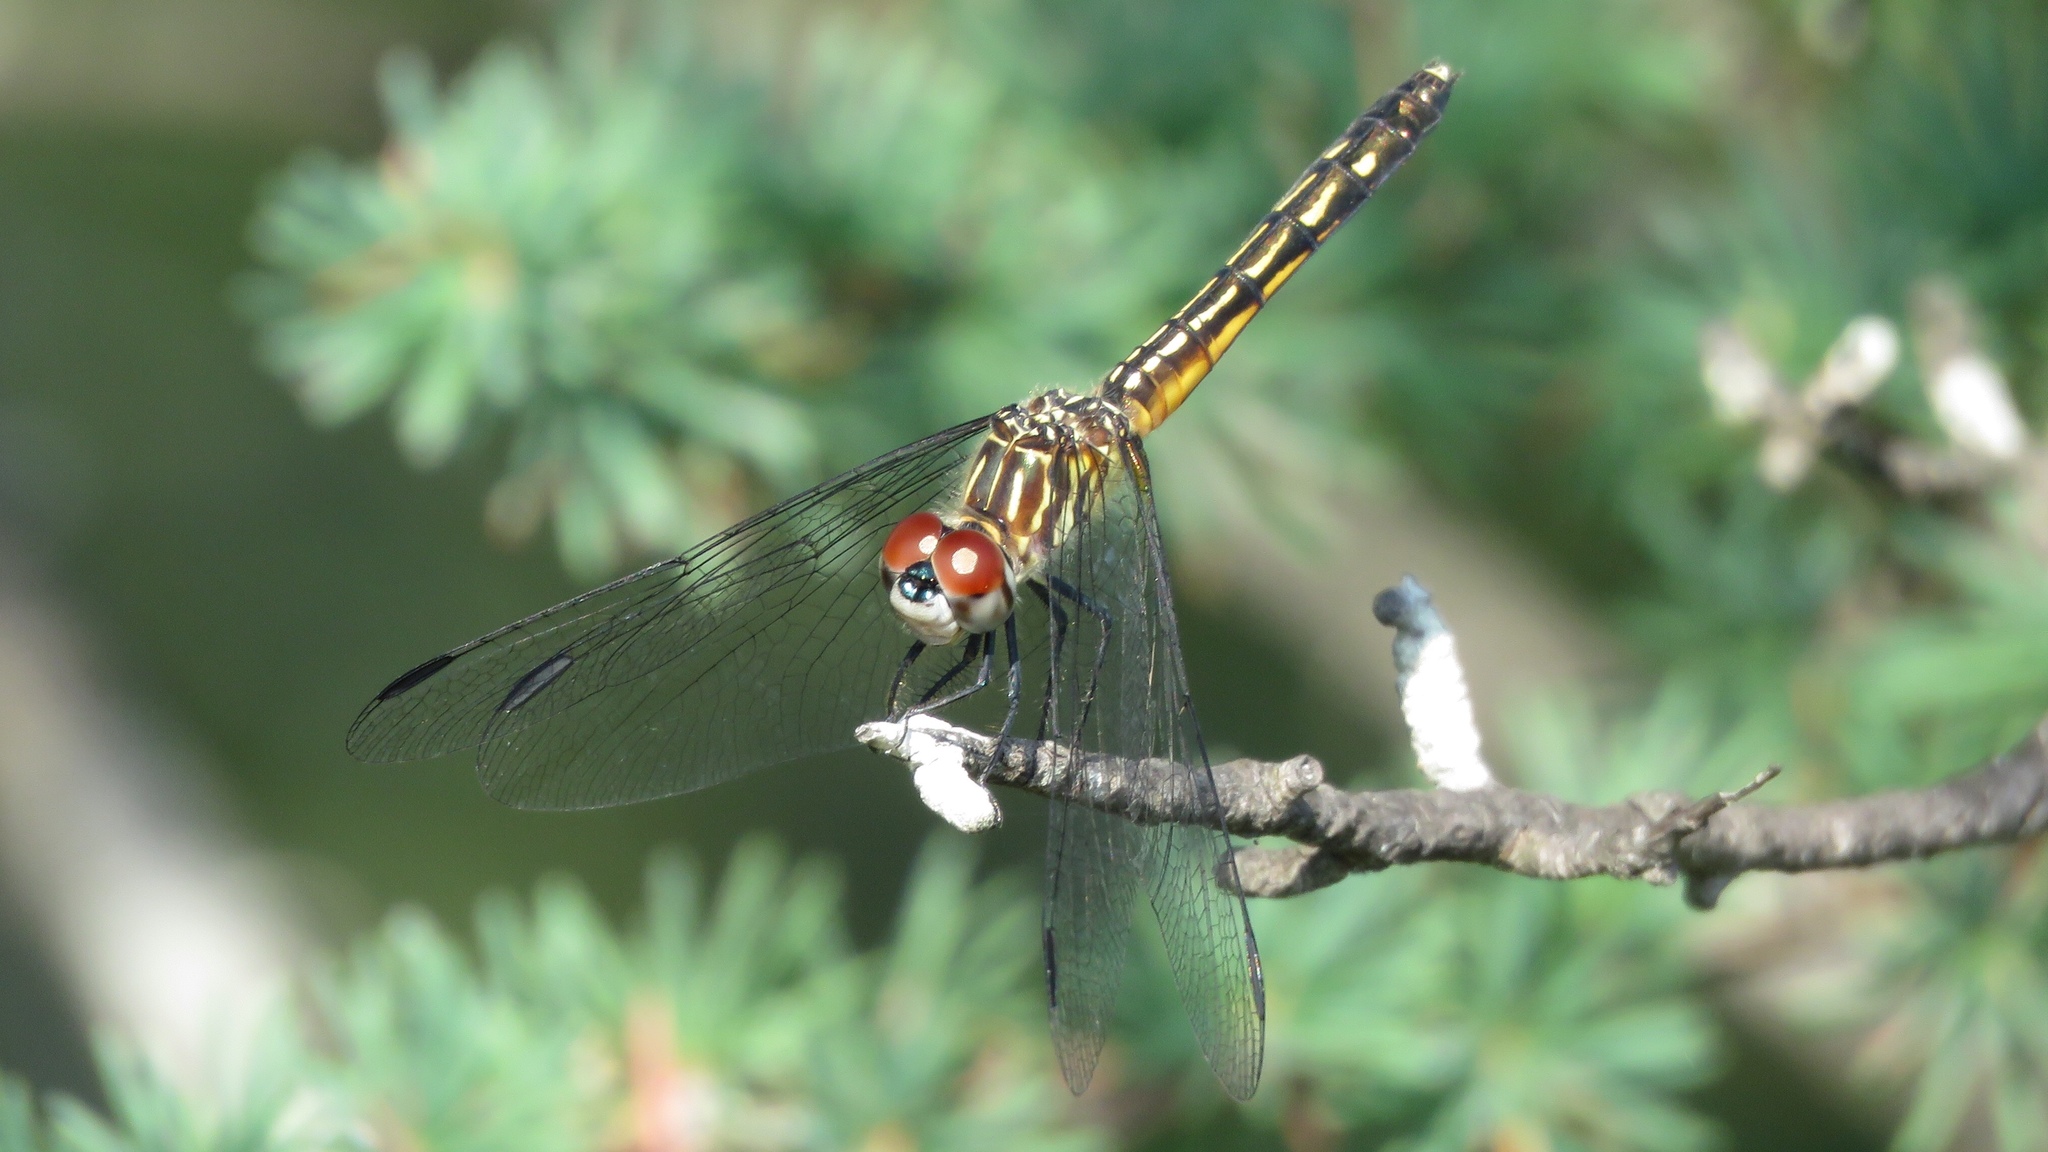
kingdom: Animalia
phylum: Arthropoda
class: Insecta
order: Odonata
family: Libellulidae
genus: Pachydiplax
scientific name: Pachydiplax longipennis
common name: Blue dasher
